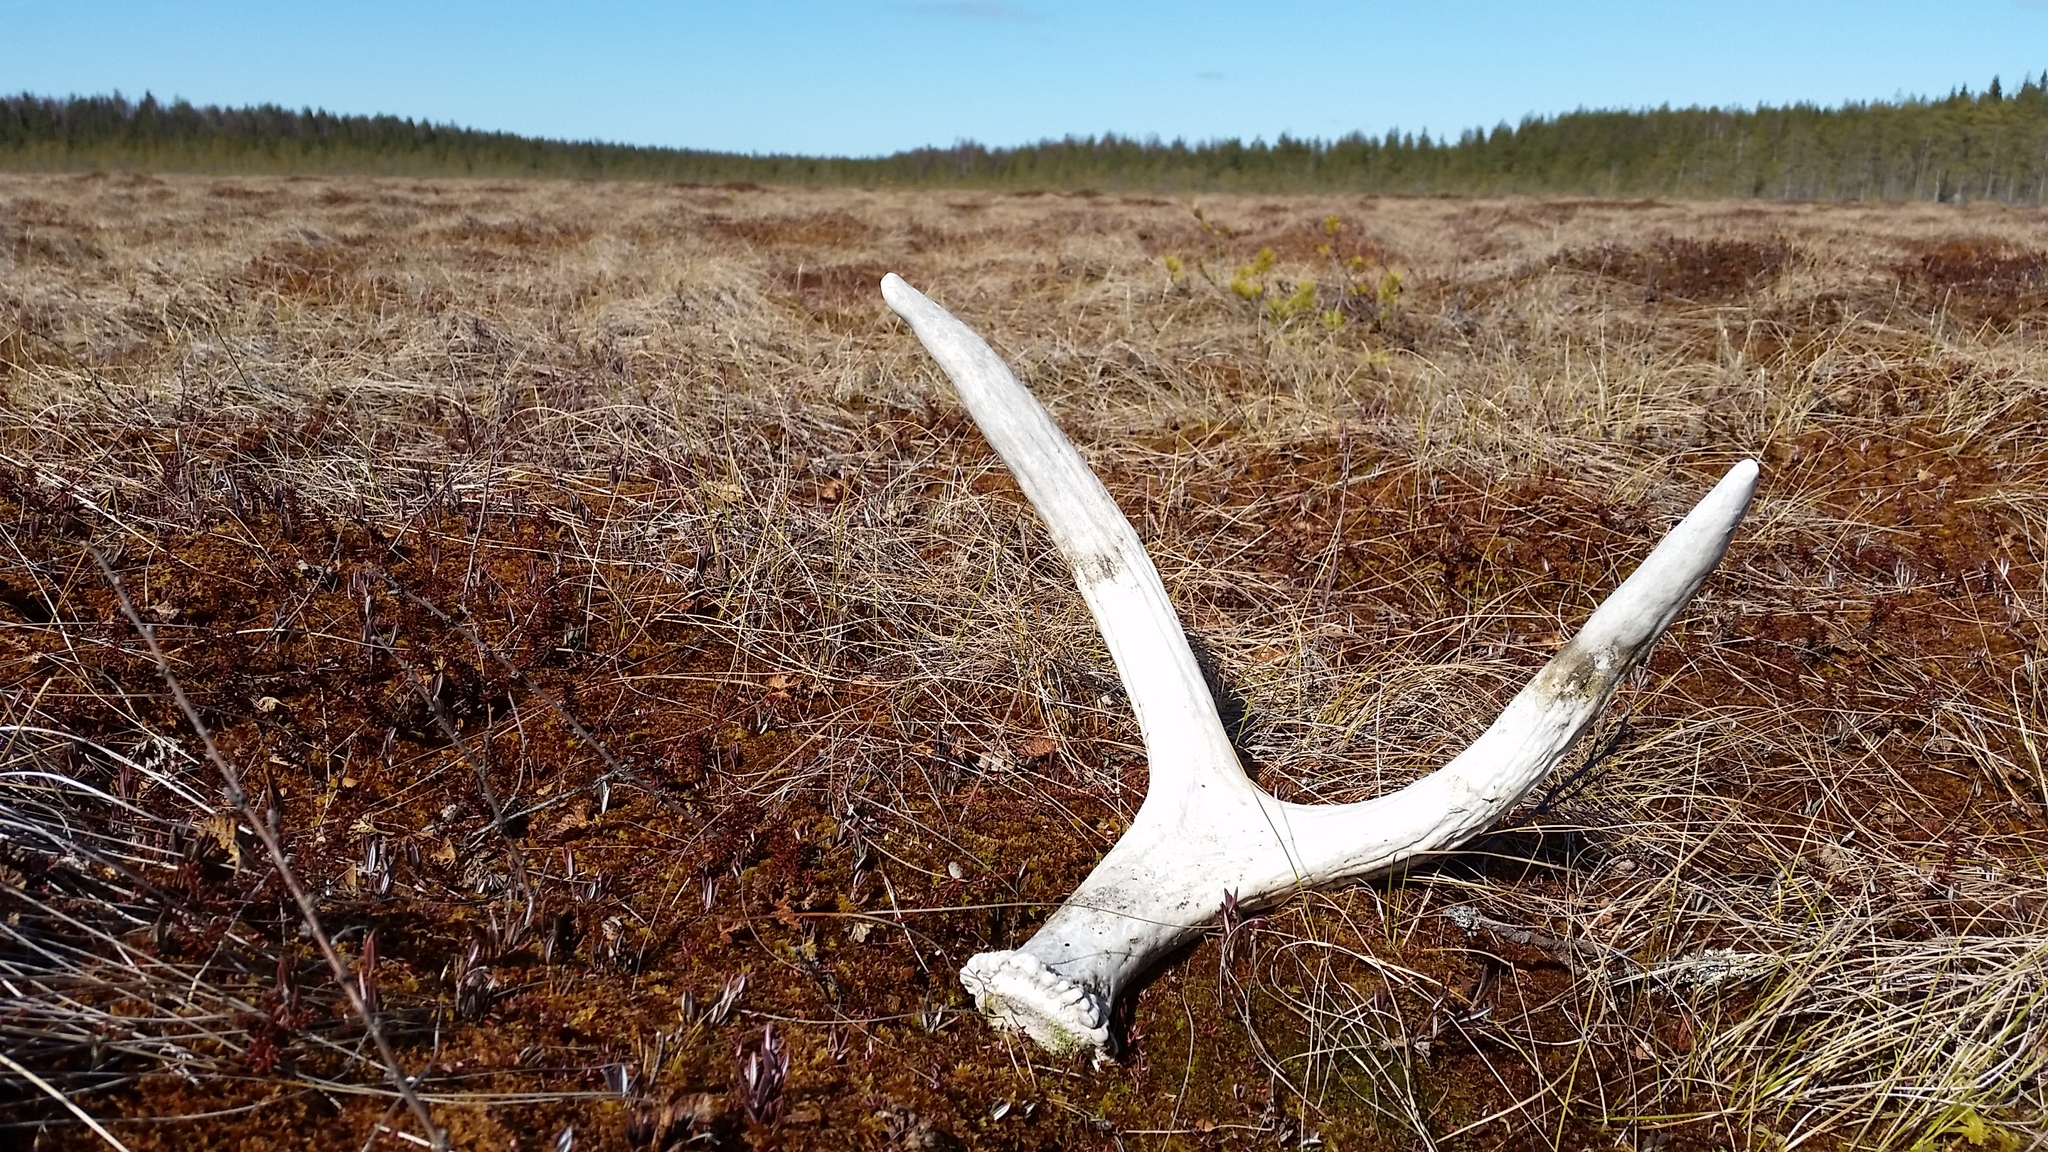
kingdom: Animalia
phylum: Chordata
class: Mammalia
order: Artiodactyla
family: Cervidae
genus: Alces
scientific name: Alces alces
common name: Moose
